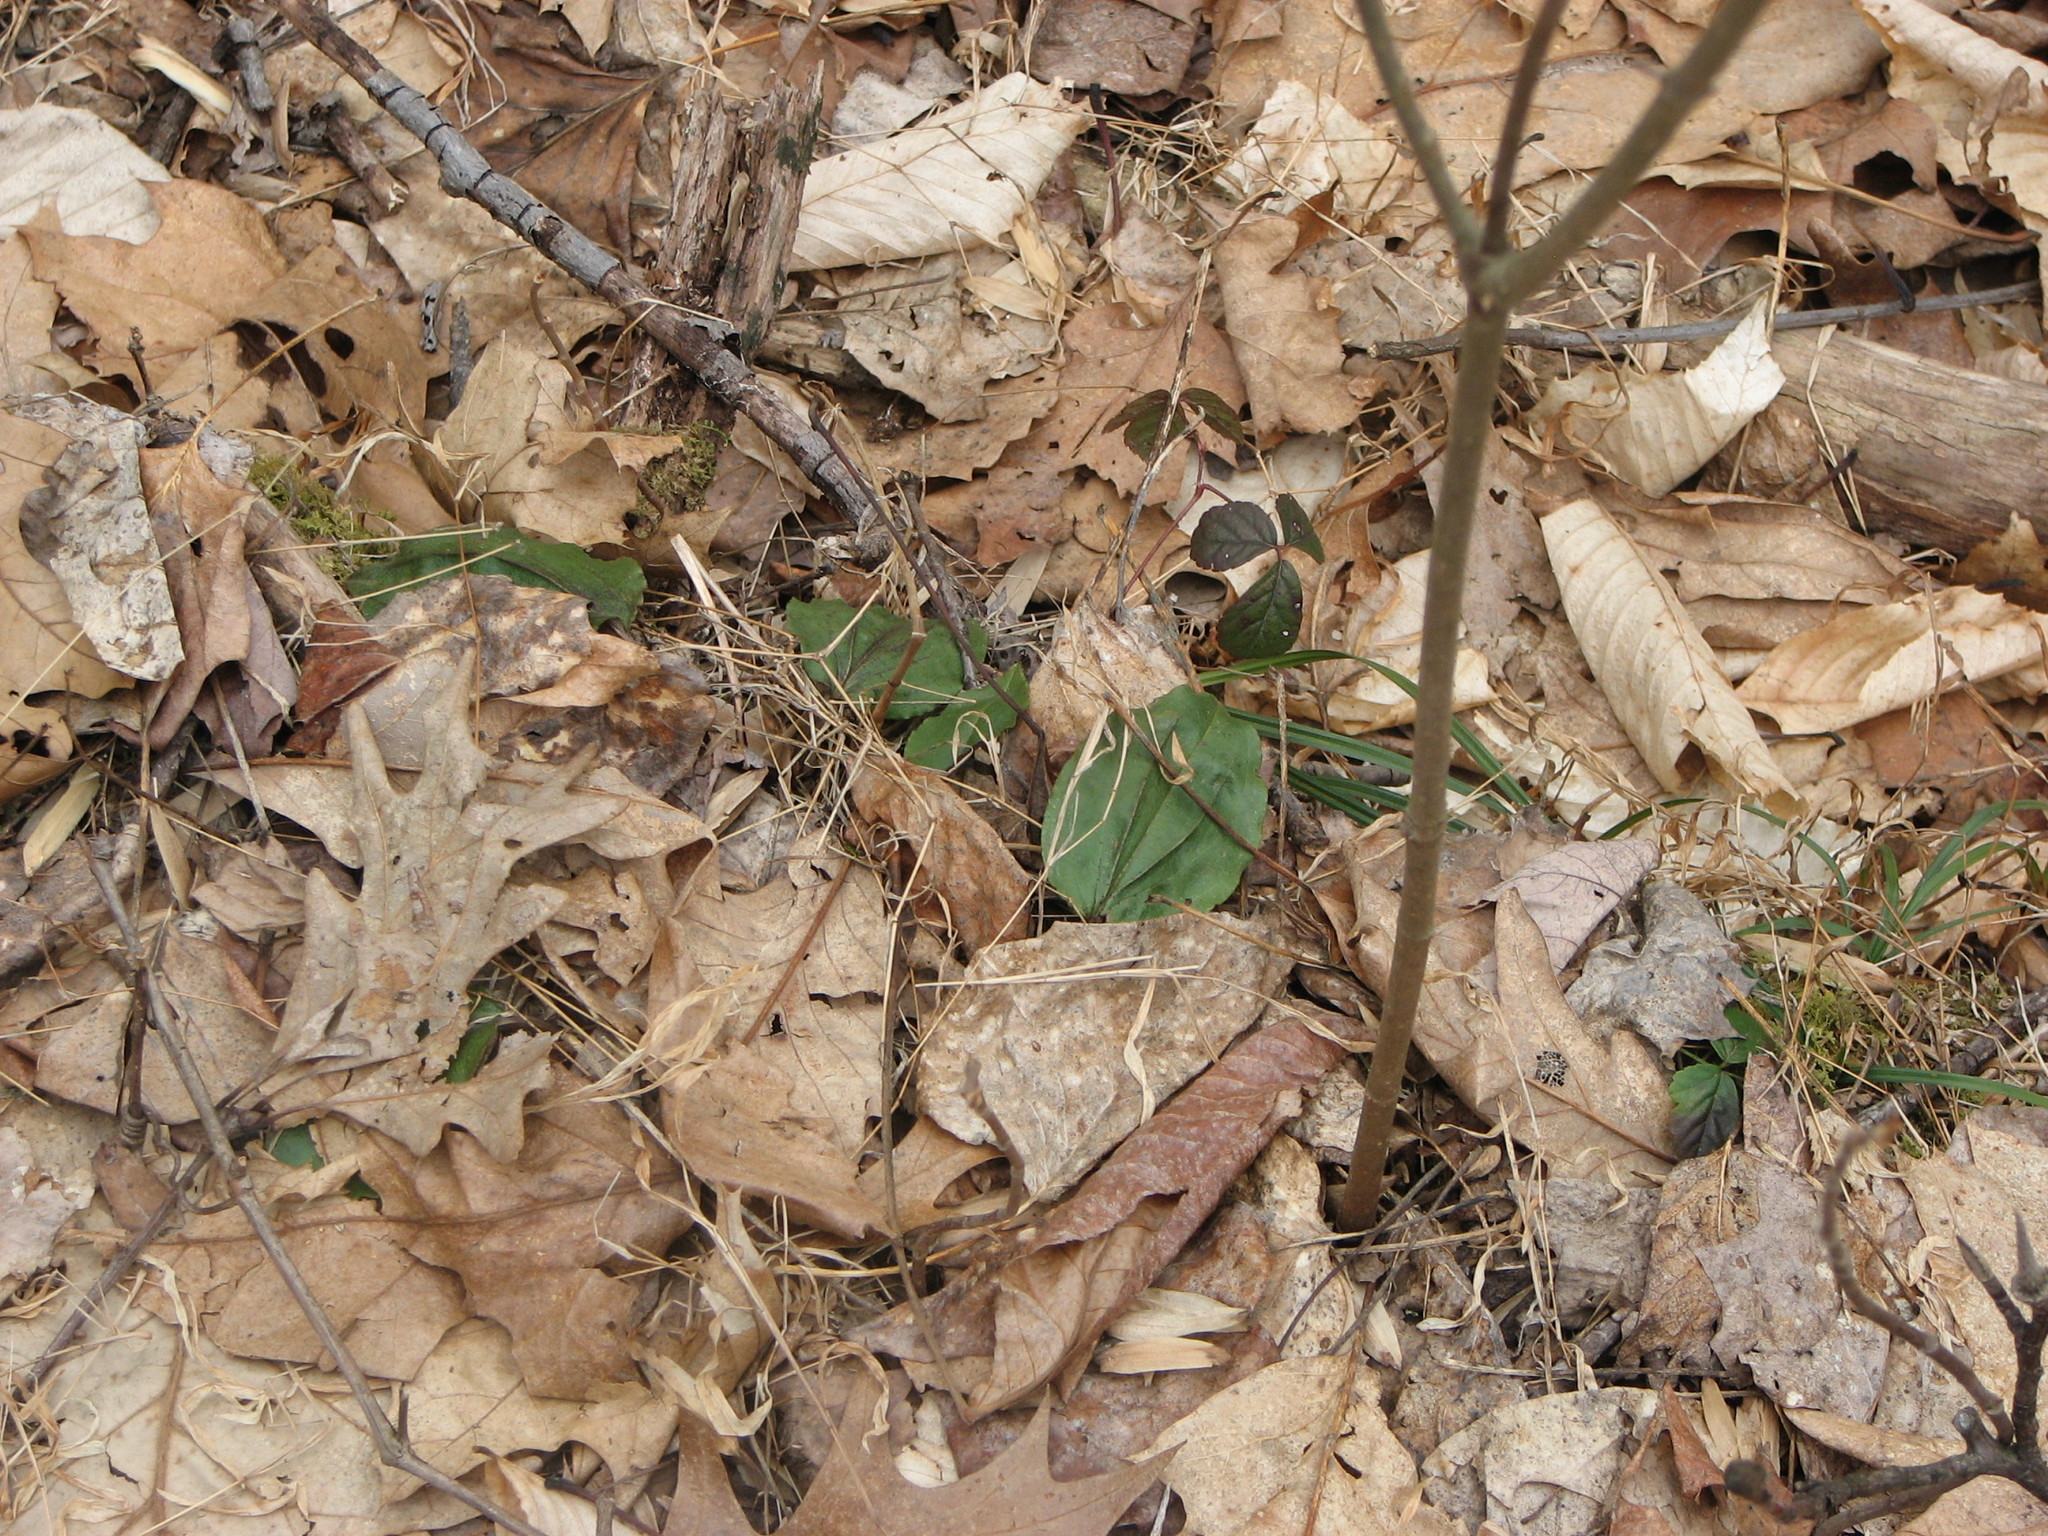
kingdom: Plantae
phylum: Tracheophyta
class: Liliopsida
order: Asparagales
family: Orchidaceae
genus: Tipularia
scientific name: Tipularia discolor
